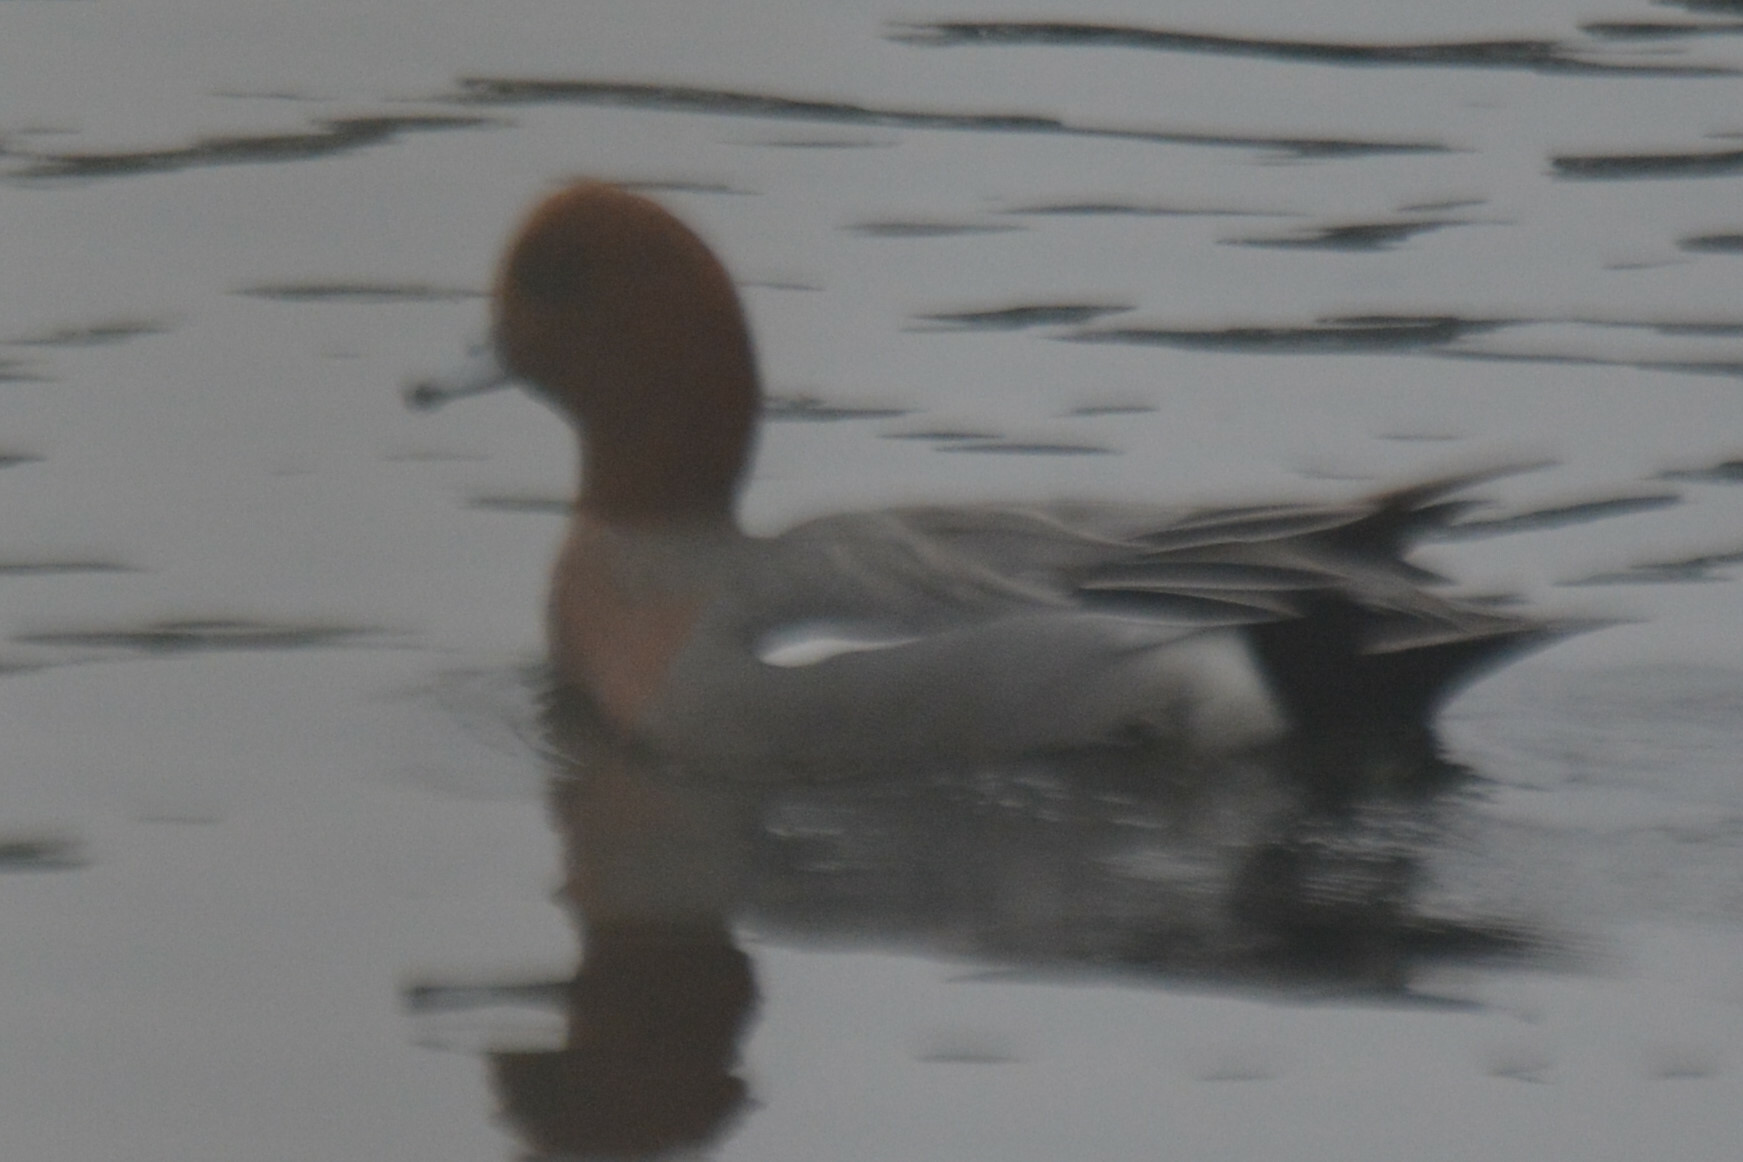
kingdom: Animalia
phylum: Chordata
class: Aves
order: Anseriformes
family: Anatidae
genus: Mareca
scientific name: Mareca penelope
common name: Eurasian wigeon
